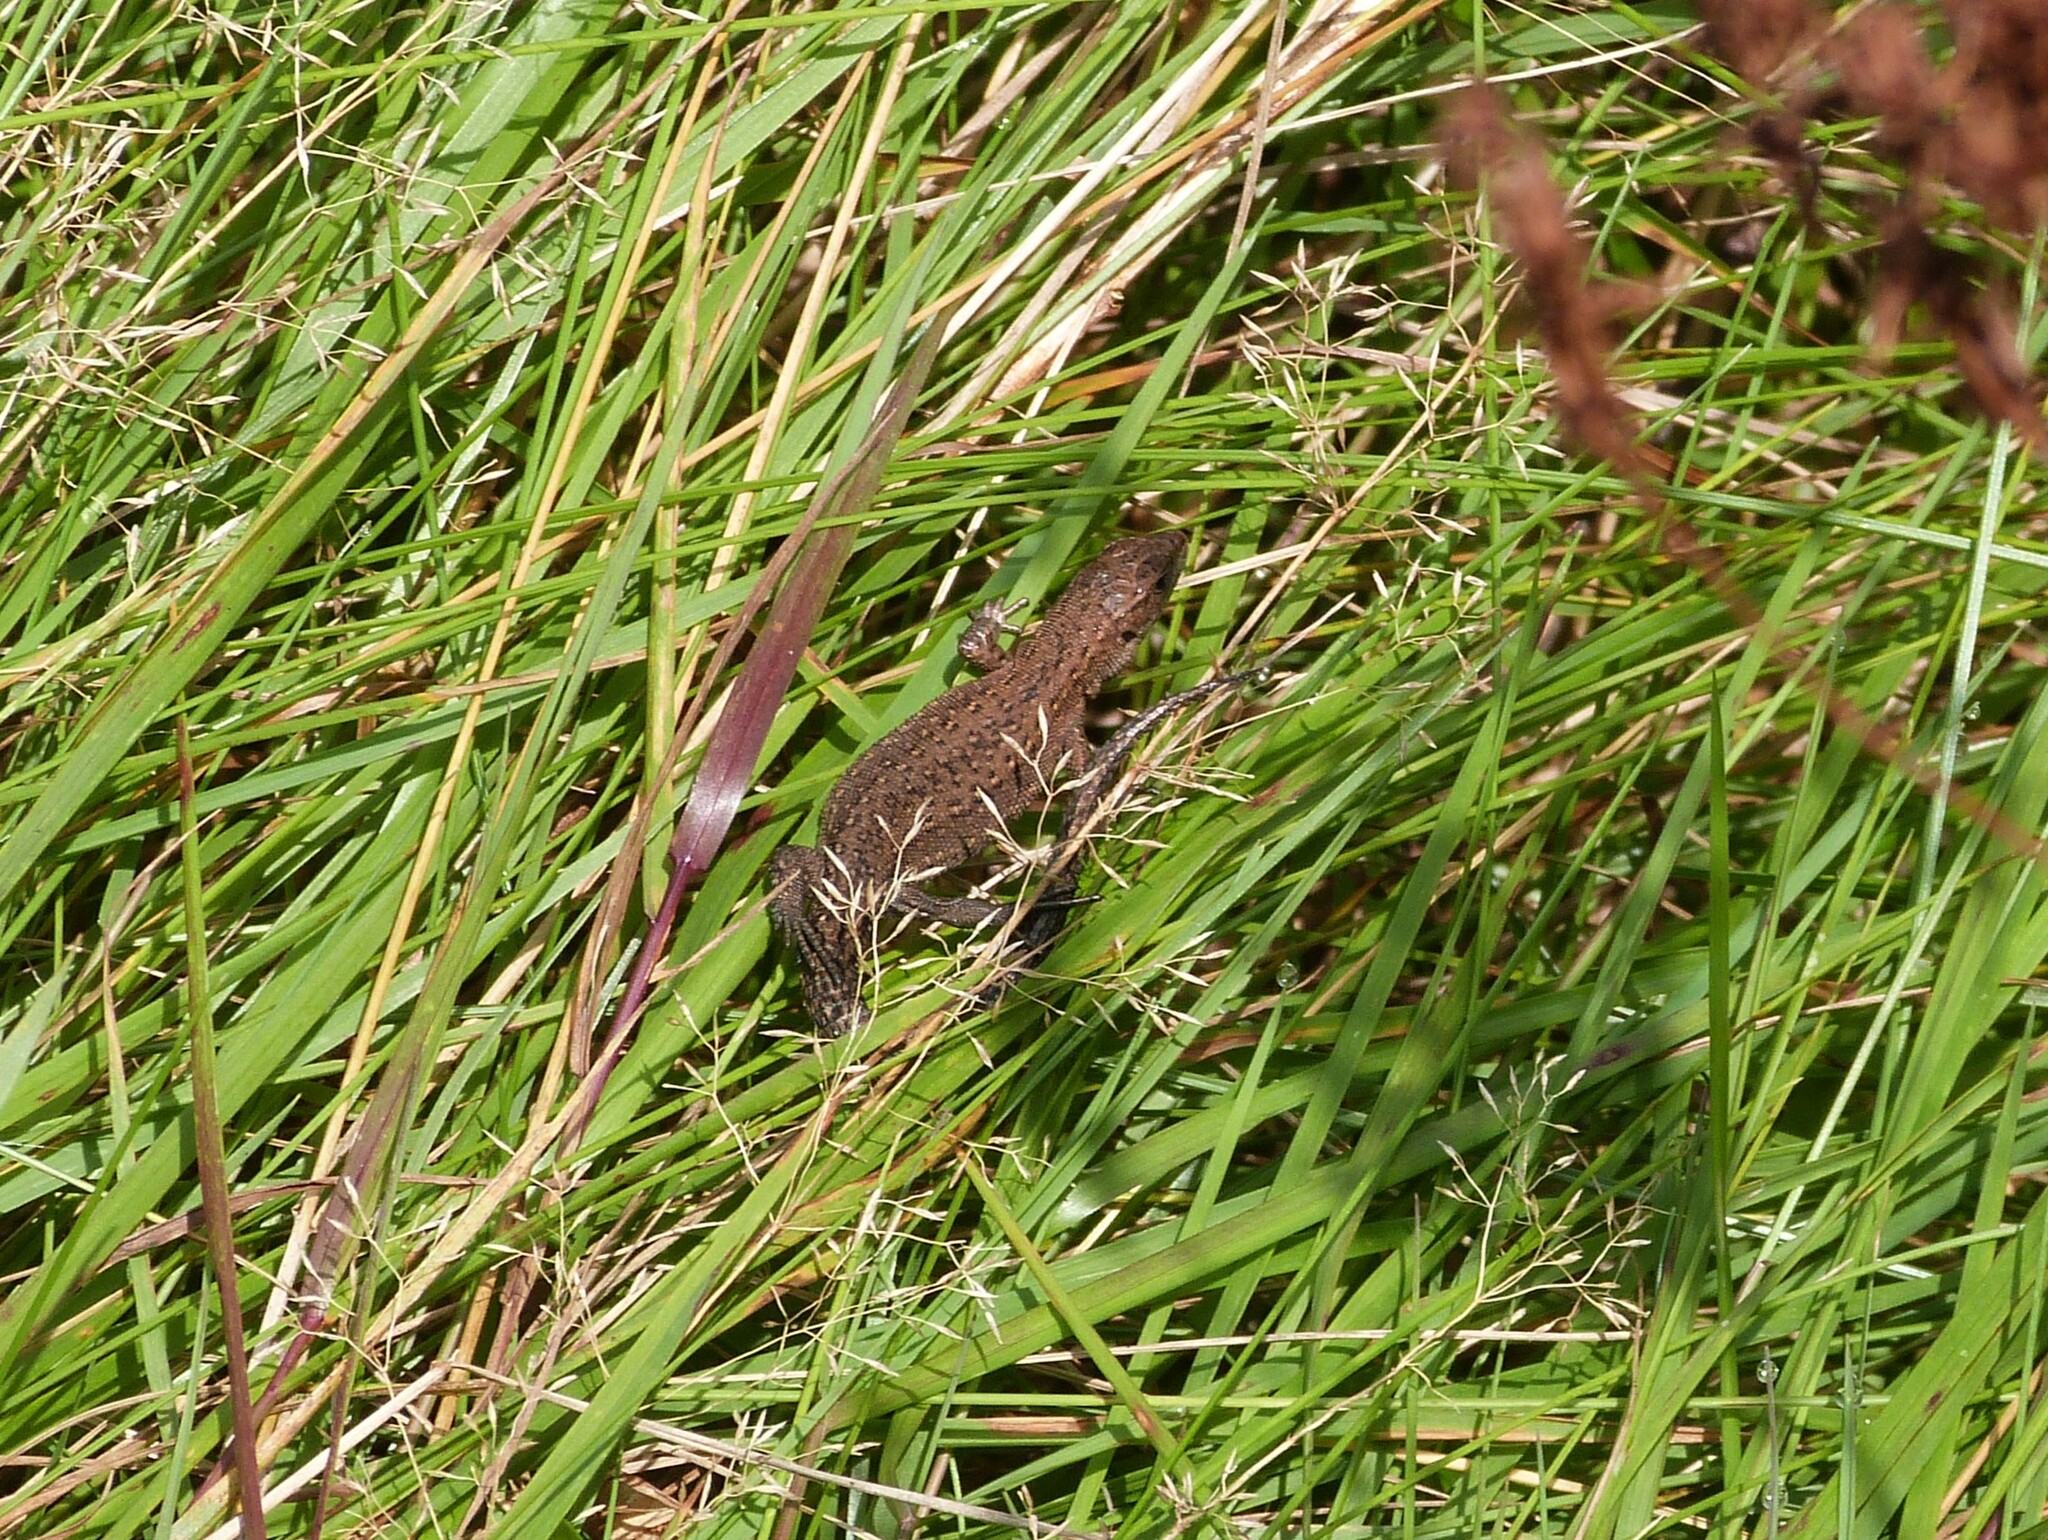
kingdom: Animalia
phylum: Chordata
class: Squamata
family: Lacertidae
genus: Zootoca
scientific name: Zootoca vivipara
